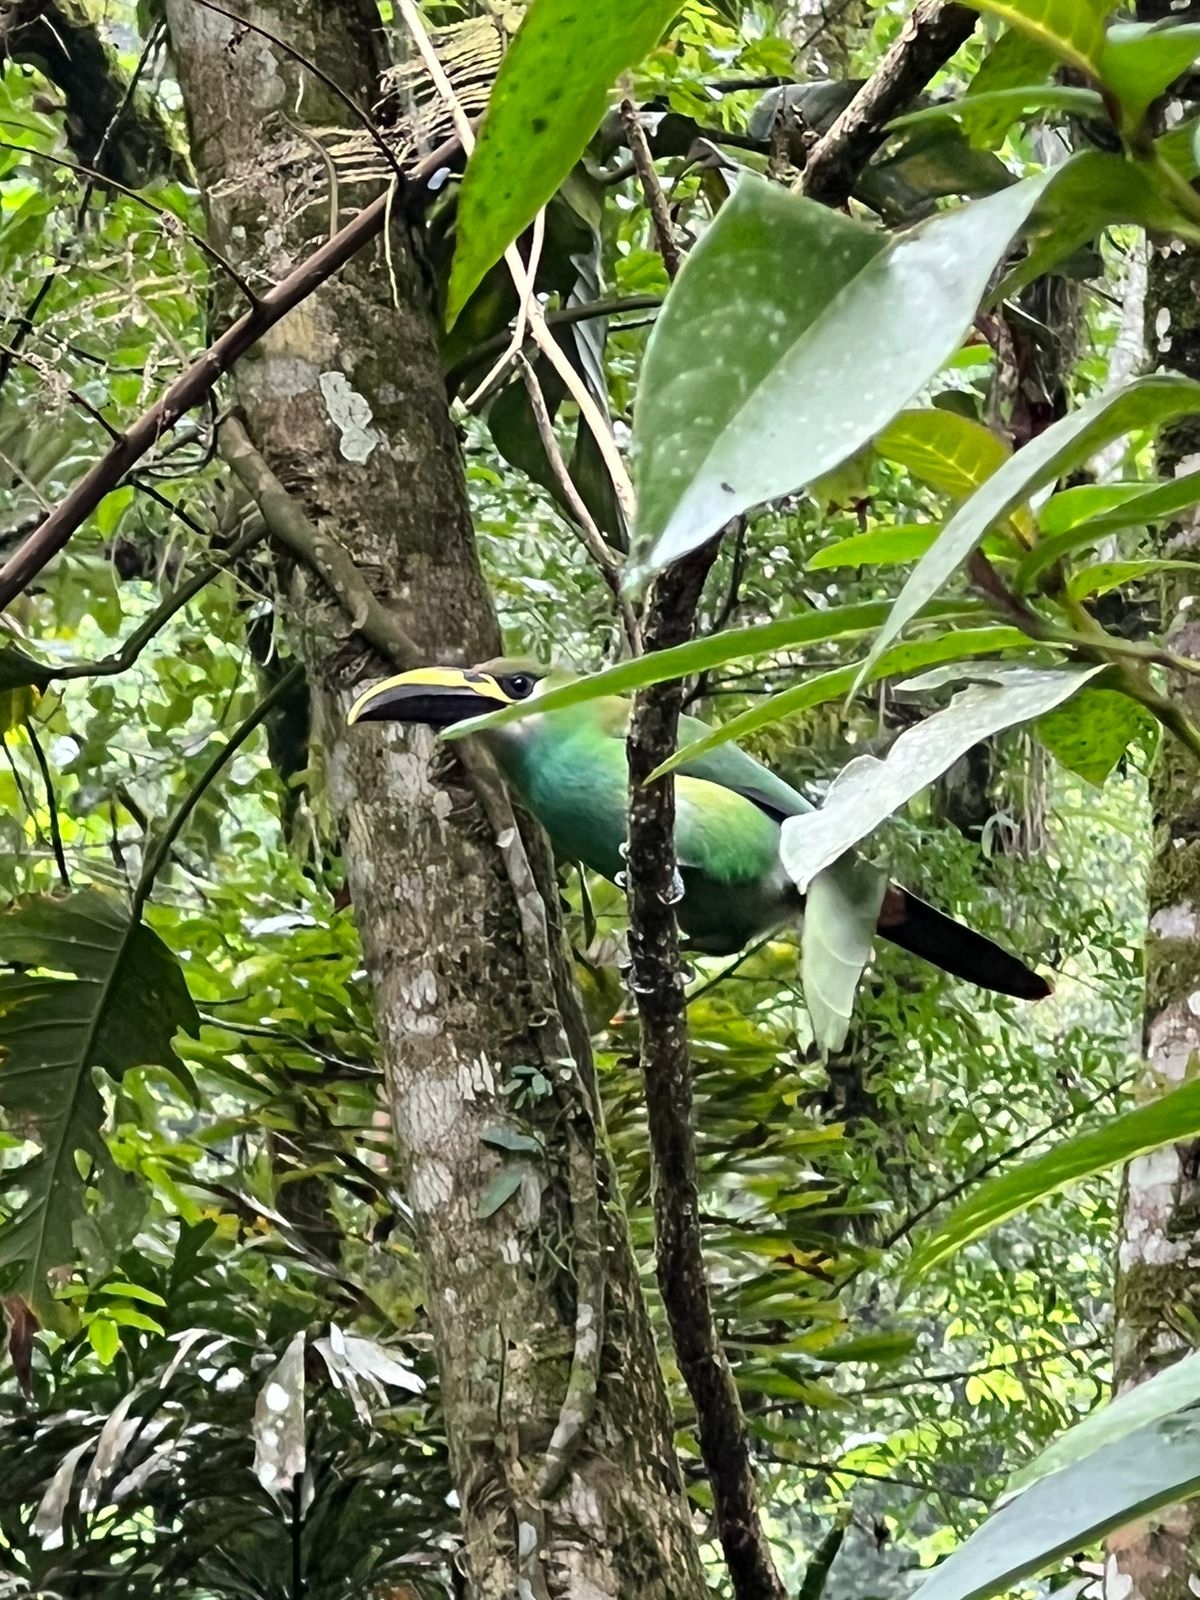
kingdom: Animalia
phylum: Chordata
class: Aves
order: Piciformes
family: Ramphastidae
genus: Aulacorhynchus
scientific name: Aulacorhynchus prasinus
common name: Emerald toucanet
